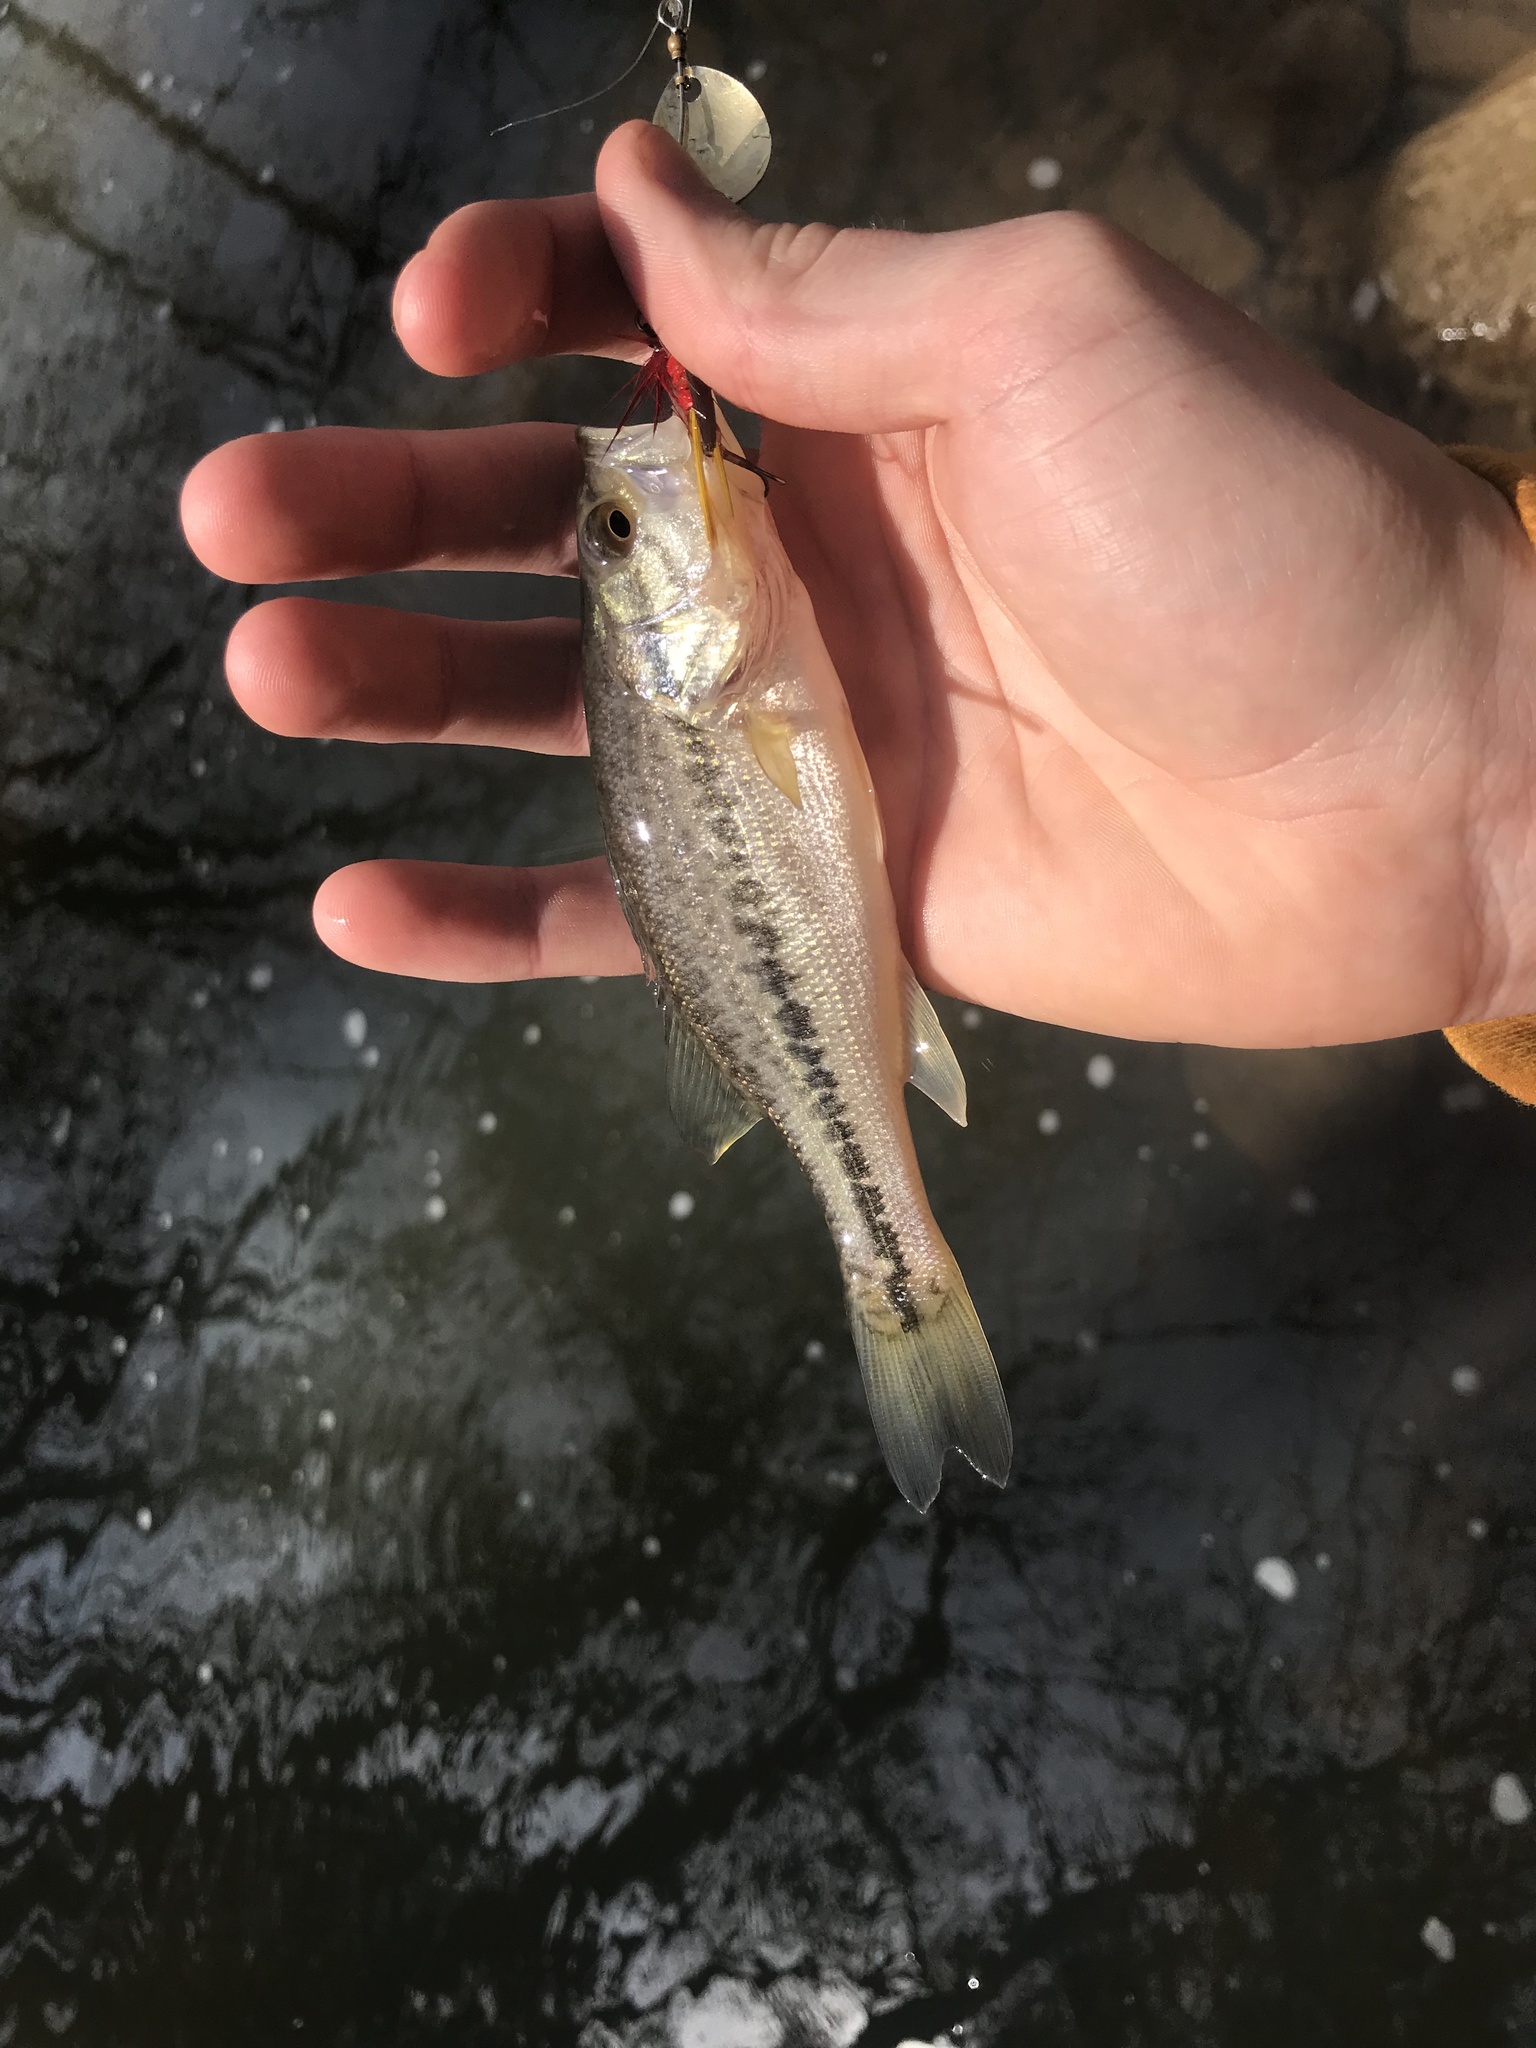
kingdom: Animalia
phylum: Chordata
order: Perciformes
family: Centrarchidae
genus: Micropterus
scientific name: Micropterus
